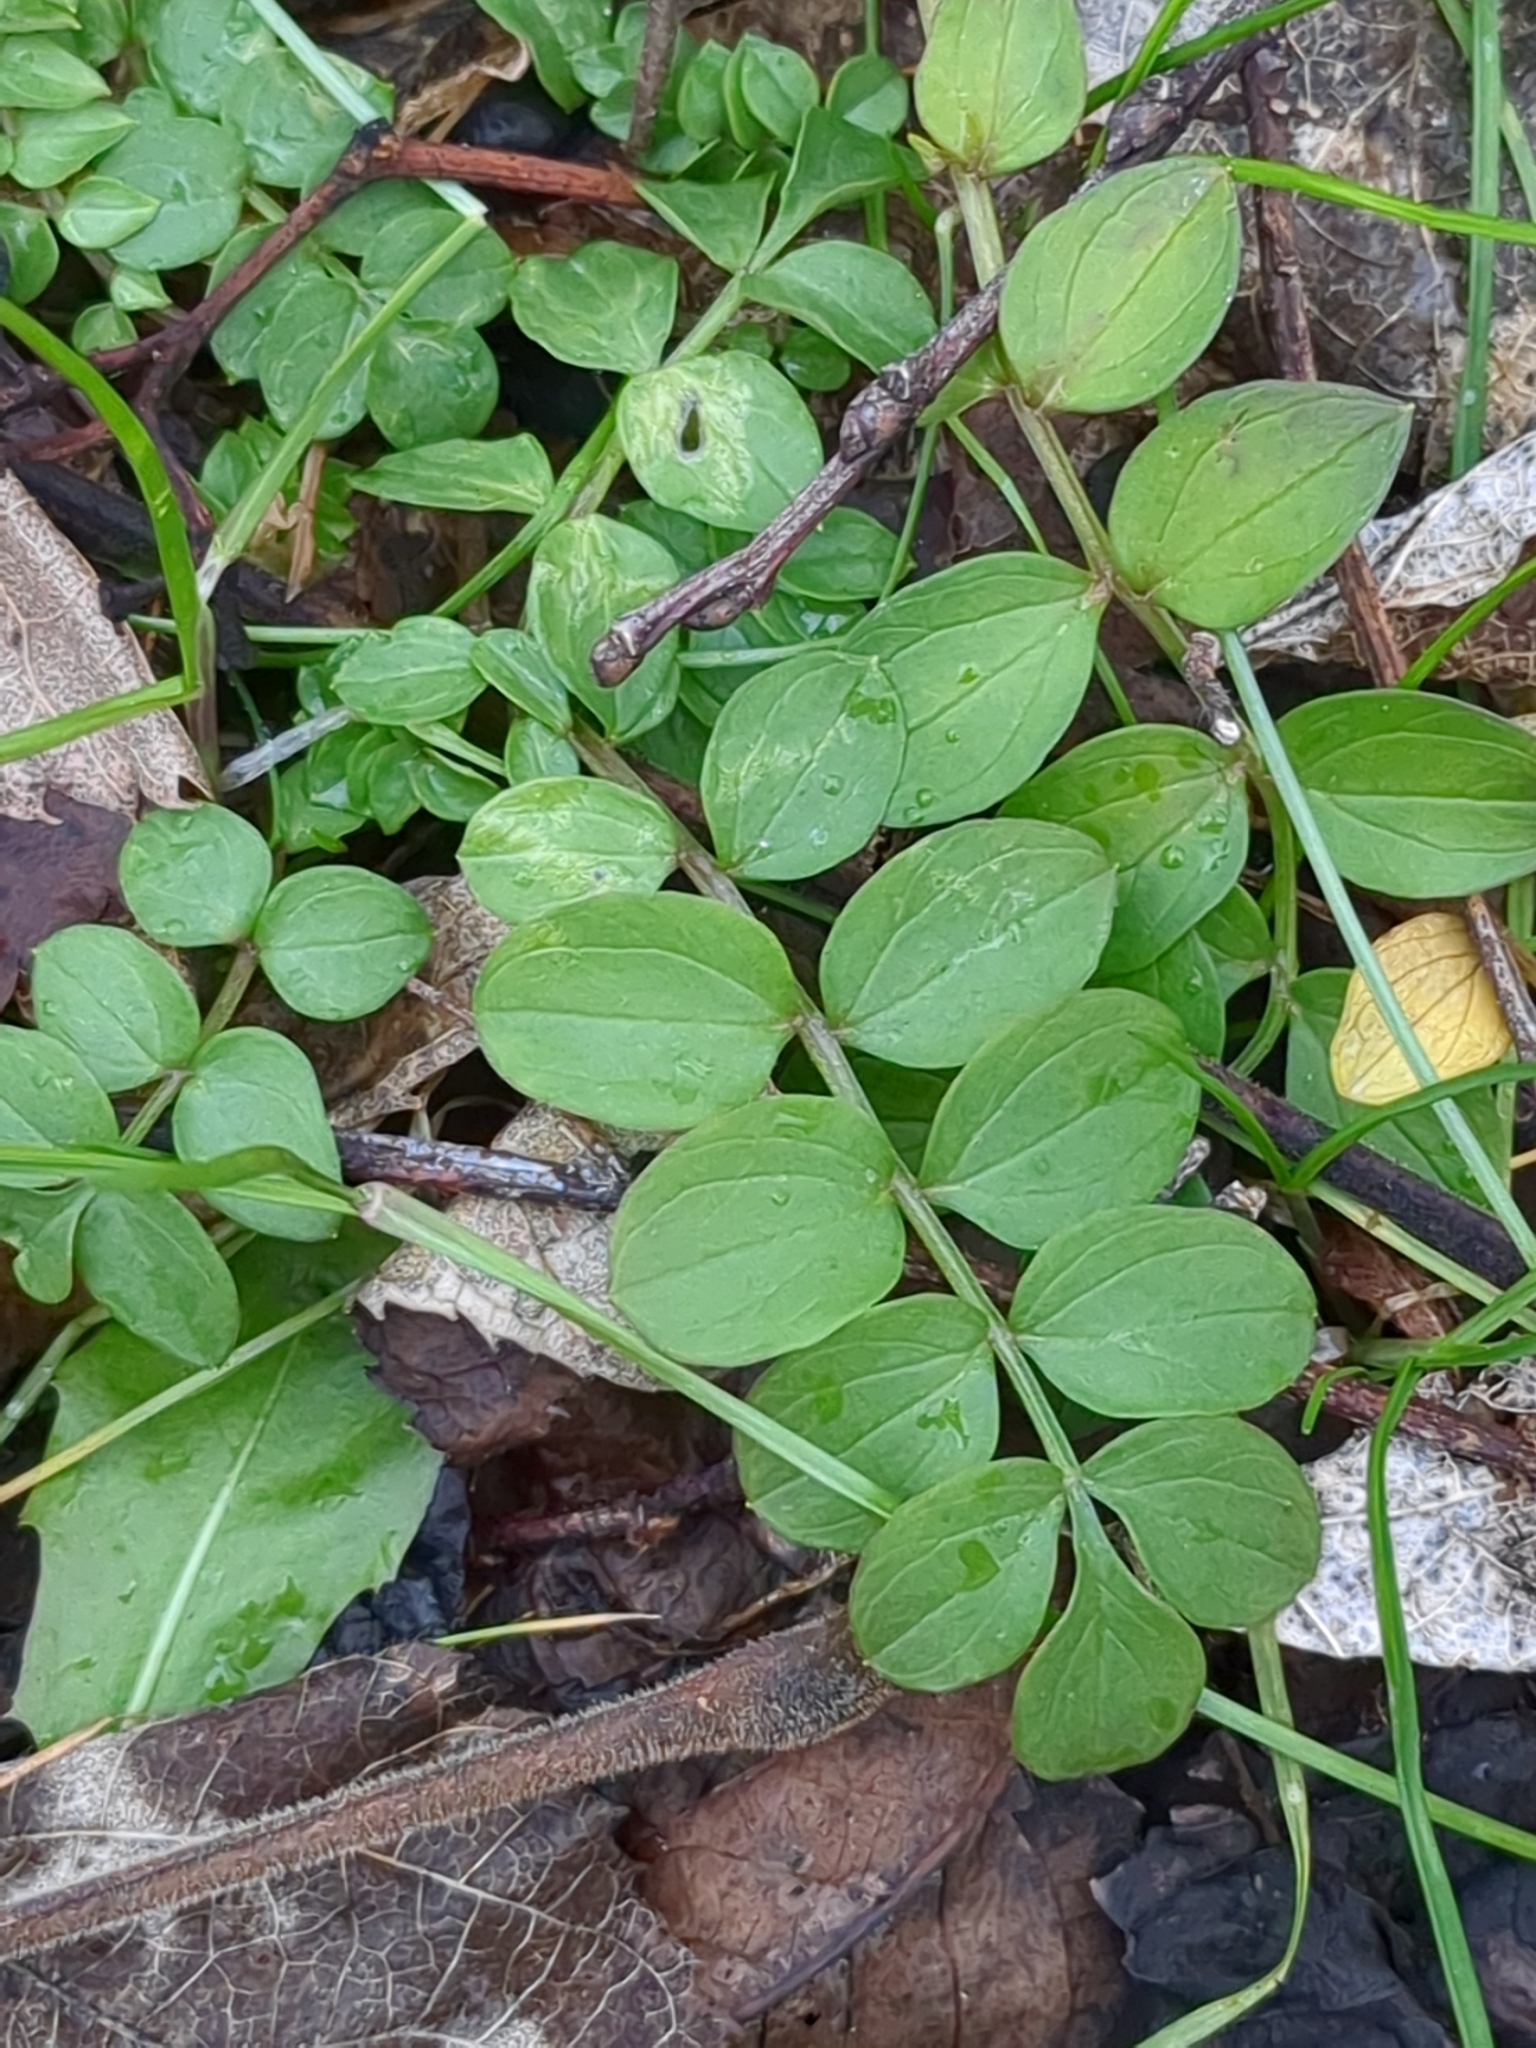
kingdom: Plantae
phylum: Tracheophyta
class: Magnoliopsida
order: Ericales
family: Polemoniaceae
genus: Polemonium
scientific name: Polemonium reptans
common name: Creeping jacob's-ladder
